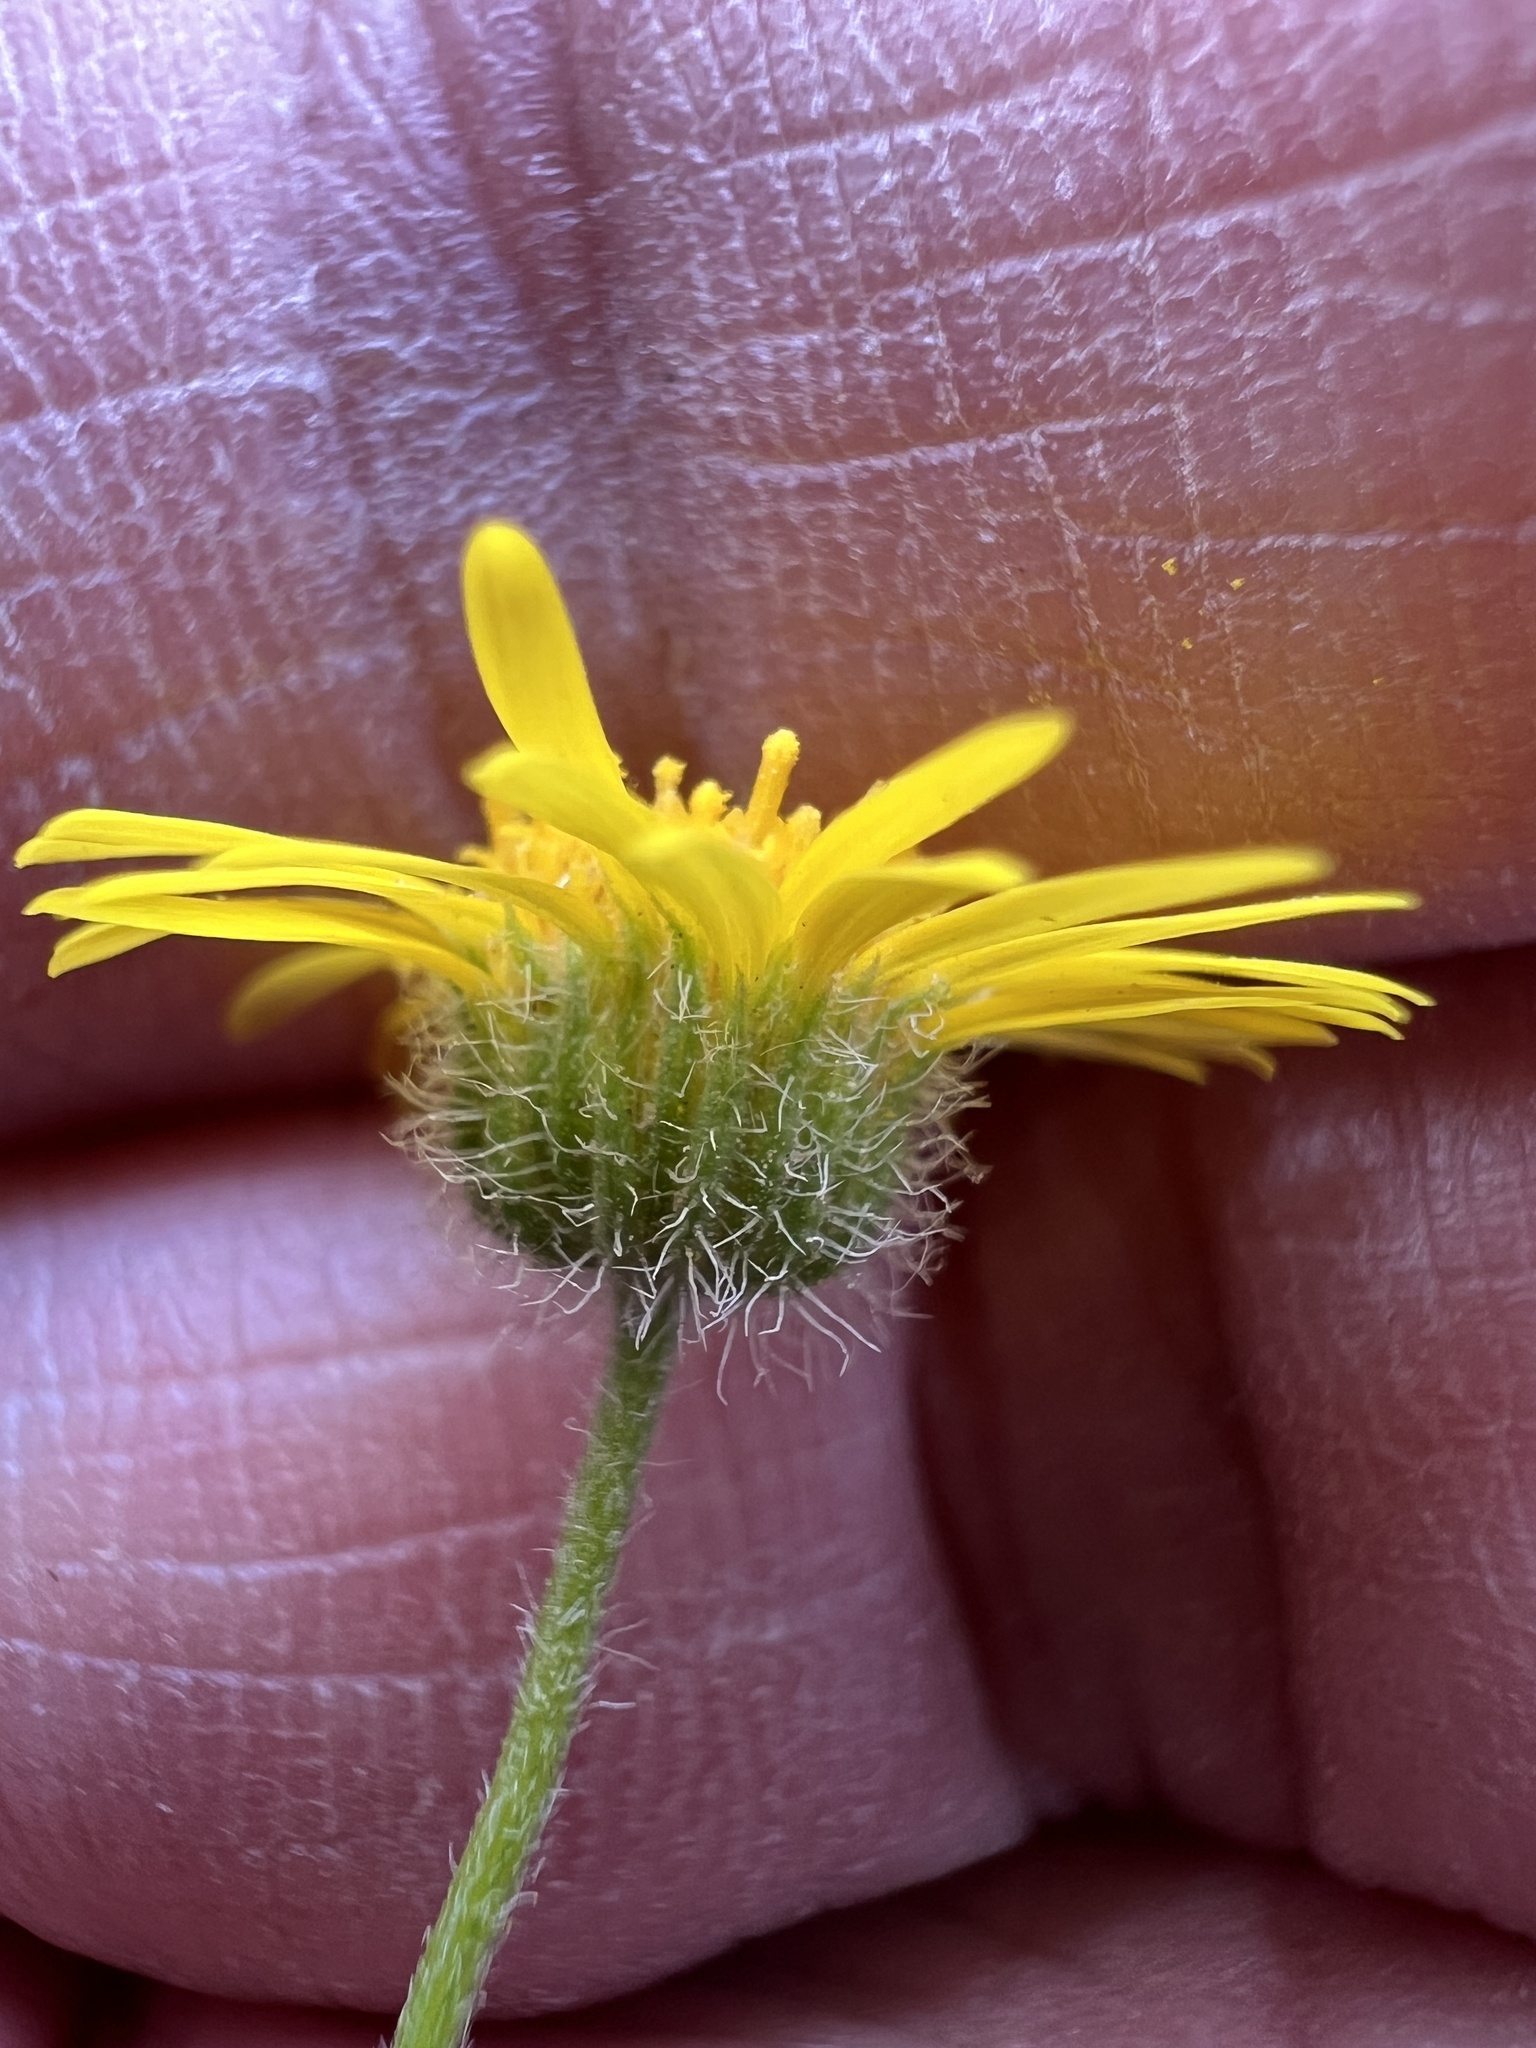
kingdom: Plantae
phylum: Tracheophyta
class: Magnoliopsida
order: Asterales
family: Asteraceae
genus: Erigeron
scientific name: Erigeron piperianus
